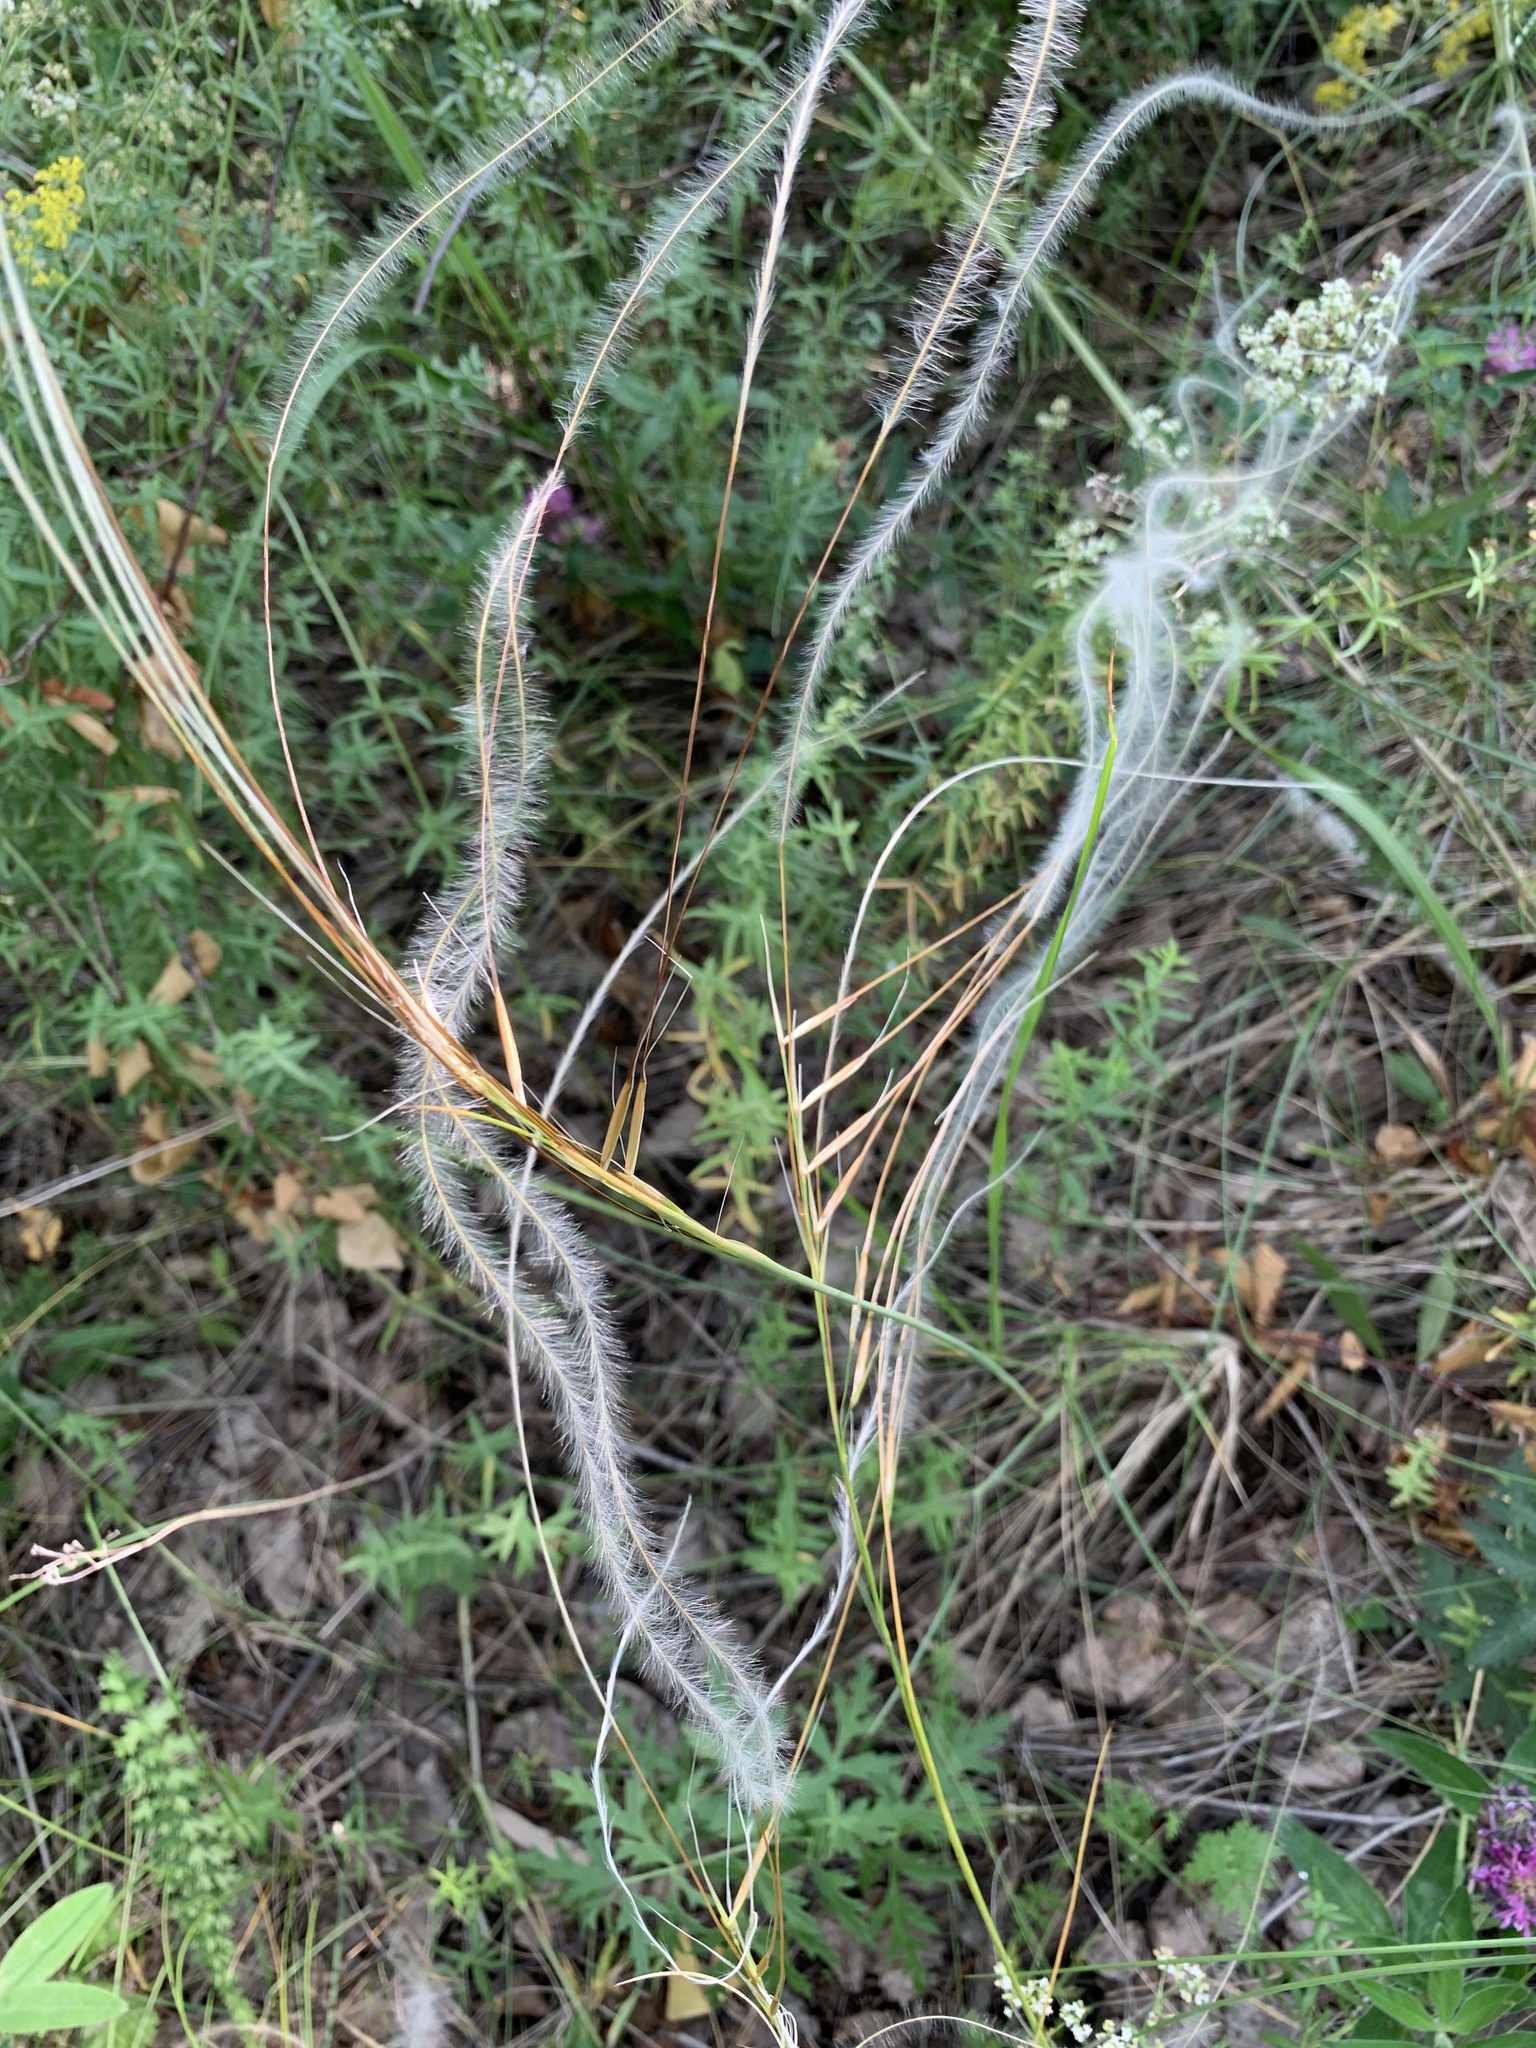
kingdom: Plantae
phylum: Tracheophyta
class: Liliopsida
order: Poales
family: Poaceae
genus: Stipa
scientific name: Stipa pennata
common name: European feather grass
